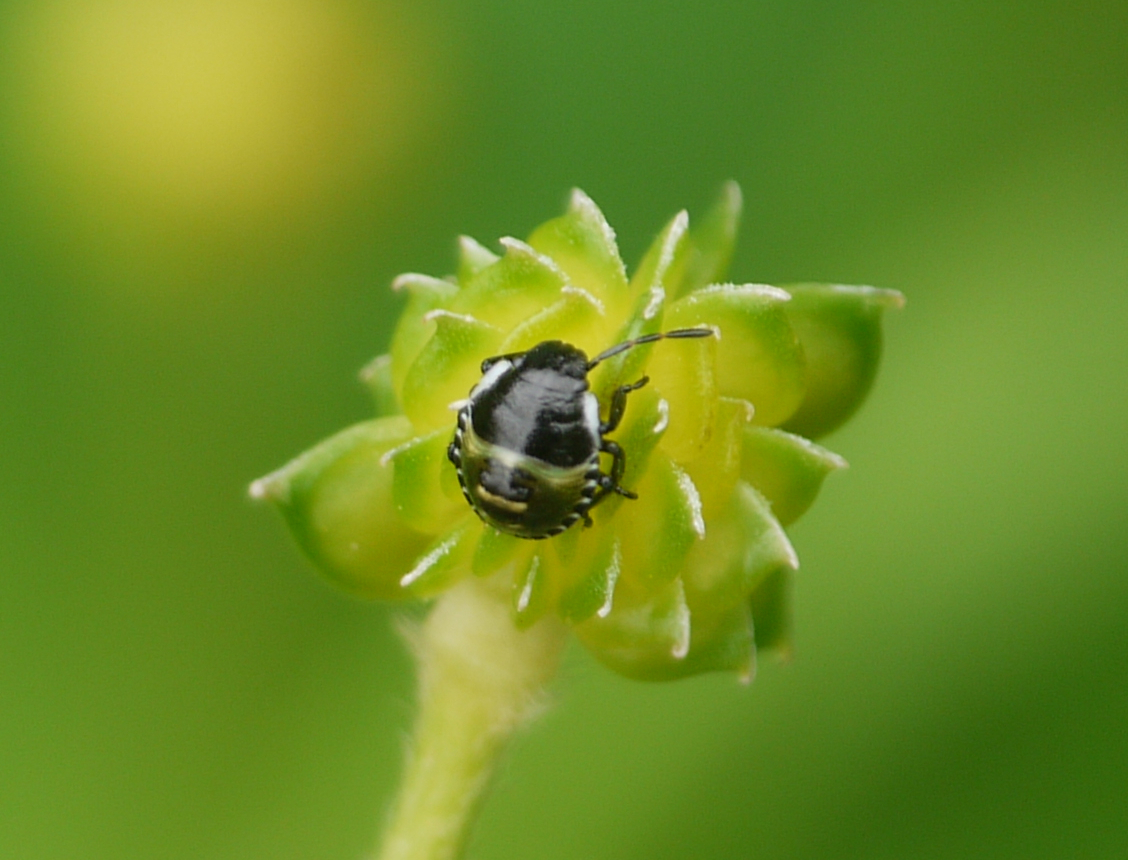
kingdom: Animalia
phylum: Arthropoda
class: Insecta
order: Hemiptera
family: Pentatomidae
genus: Palomena
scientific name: Palomena prasina
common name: Green shieldbug
